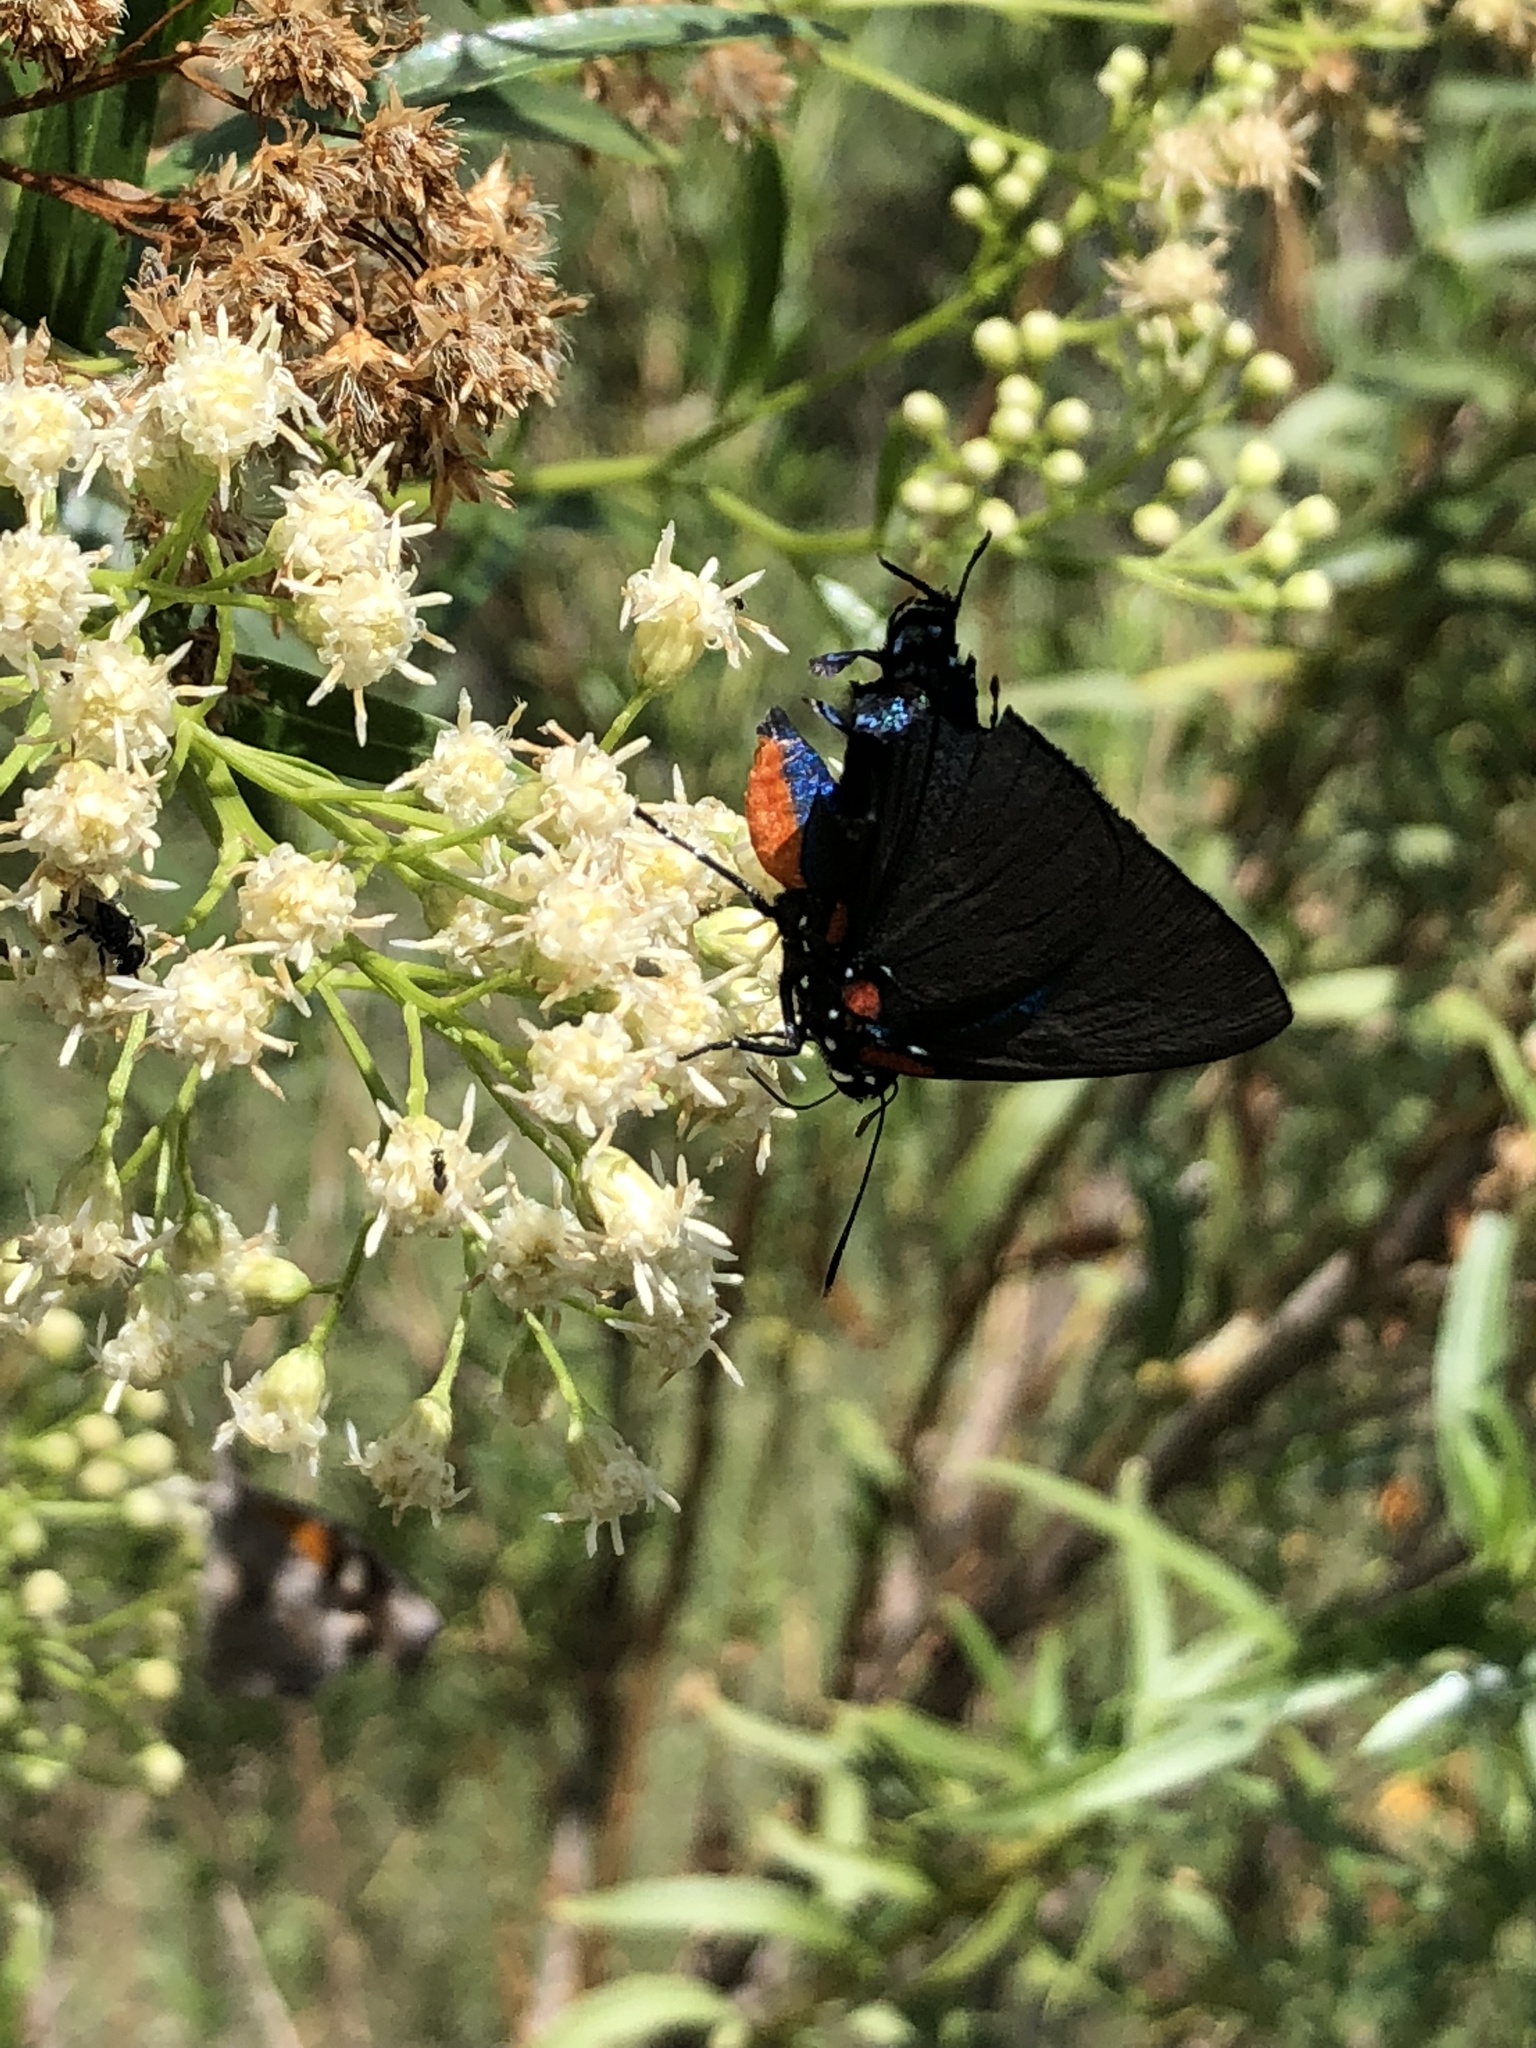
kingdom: Animalia
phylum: Arthropoda
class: Insecta
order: Lepidoptera
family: Lycaenidae
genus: Atlides
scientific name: Atlides halesus
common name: Great purple hairstreak
